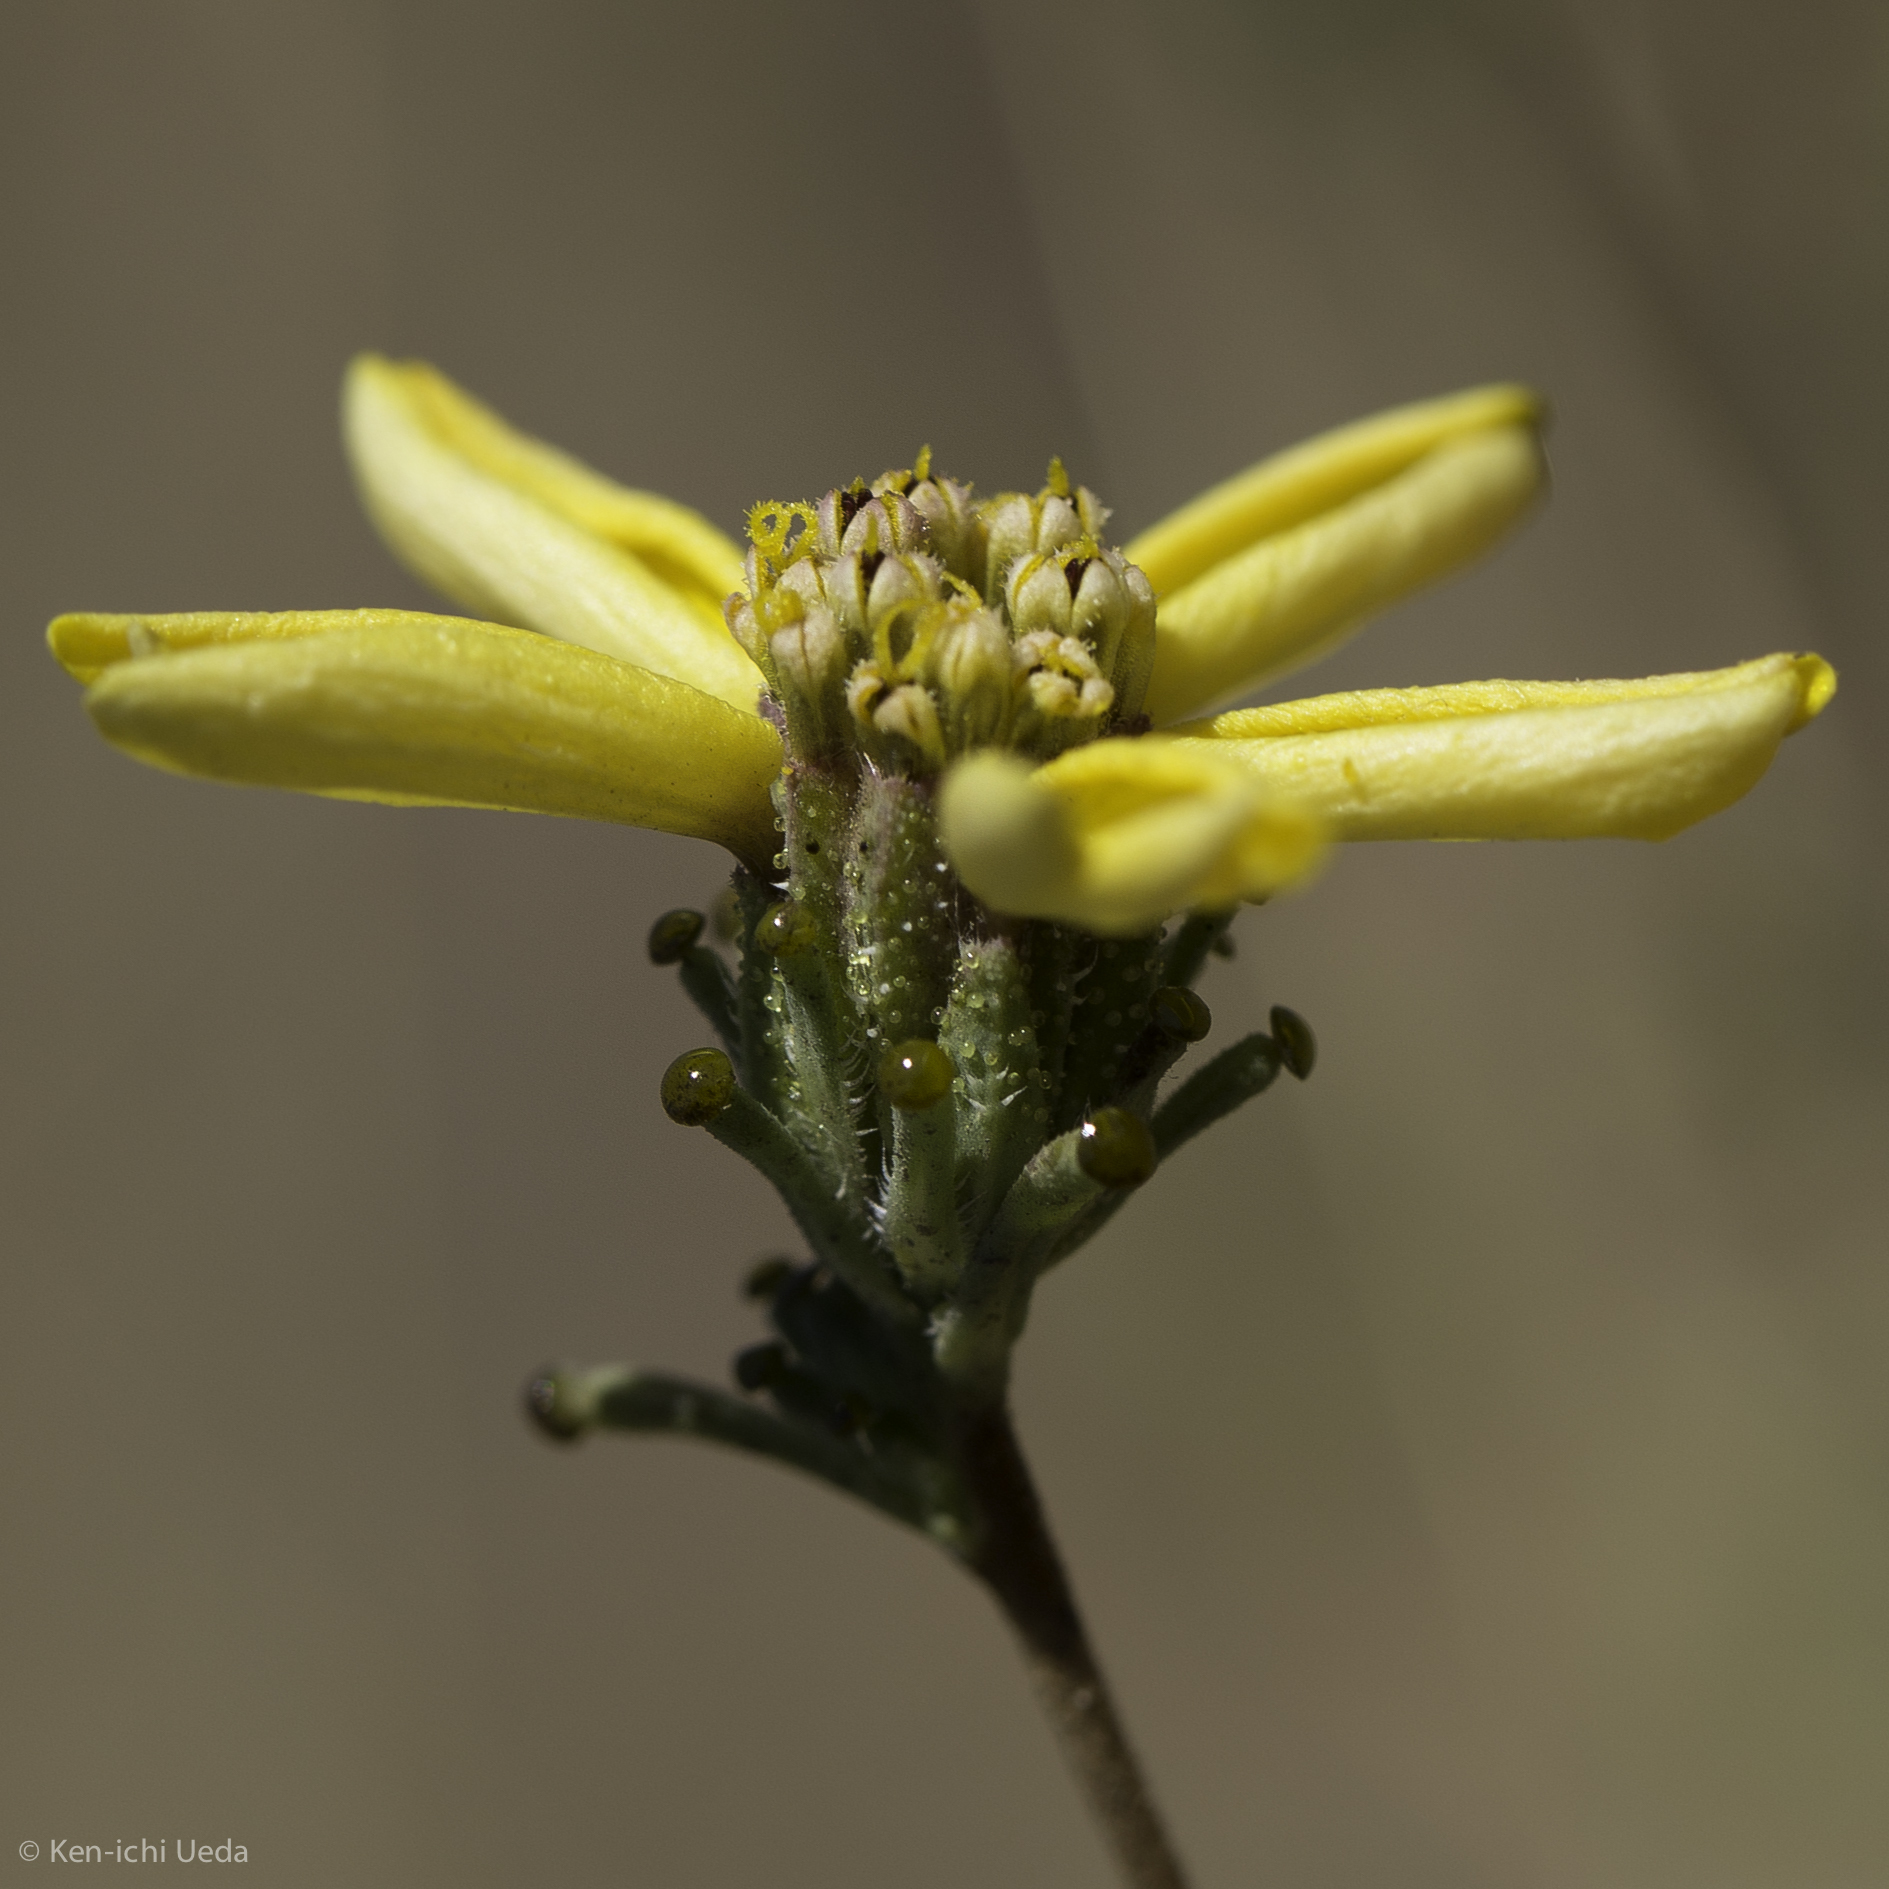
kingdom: Plantae
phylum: Tracheophyta
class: Magnoliopsida
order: Asterales
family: Asteraceae
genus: Calycadenia
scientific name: Calycadenia truncata
